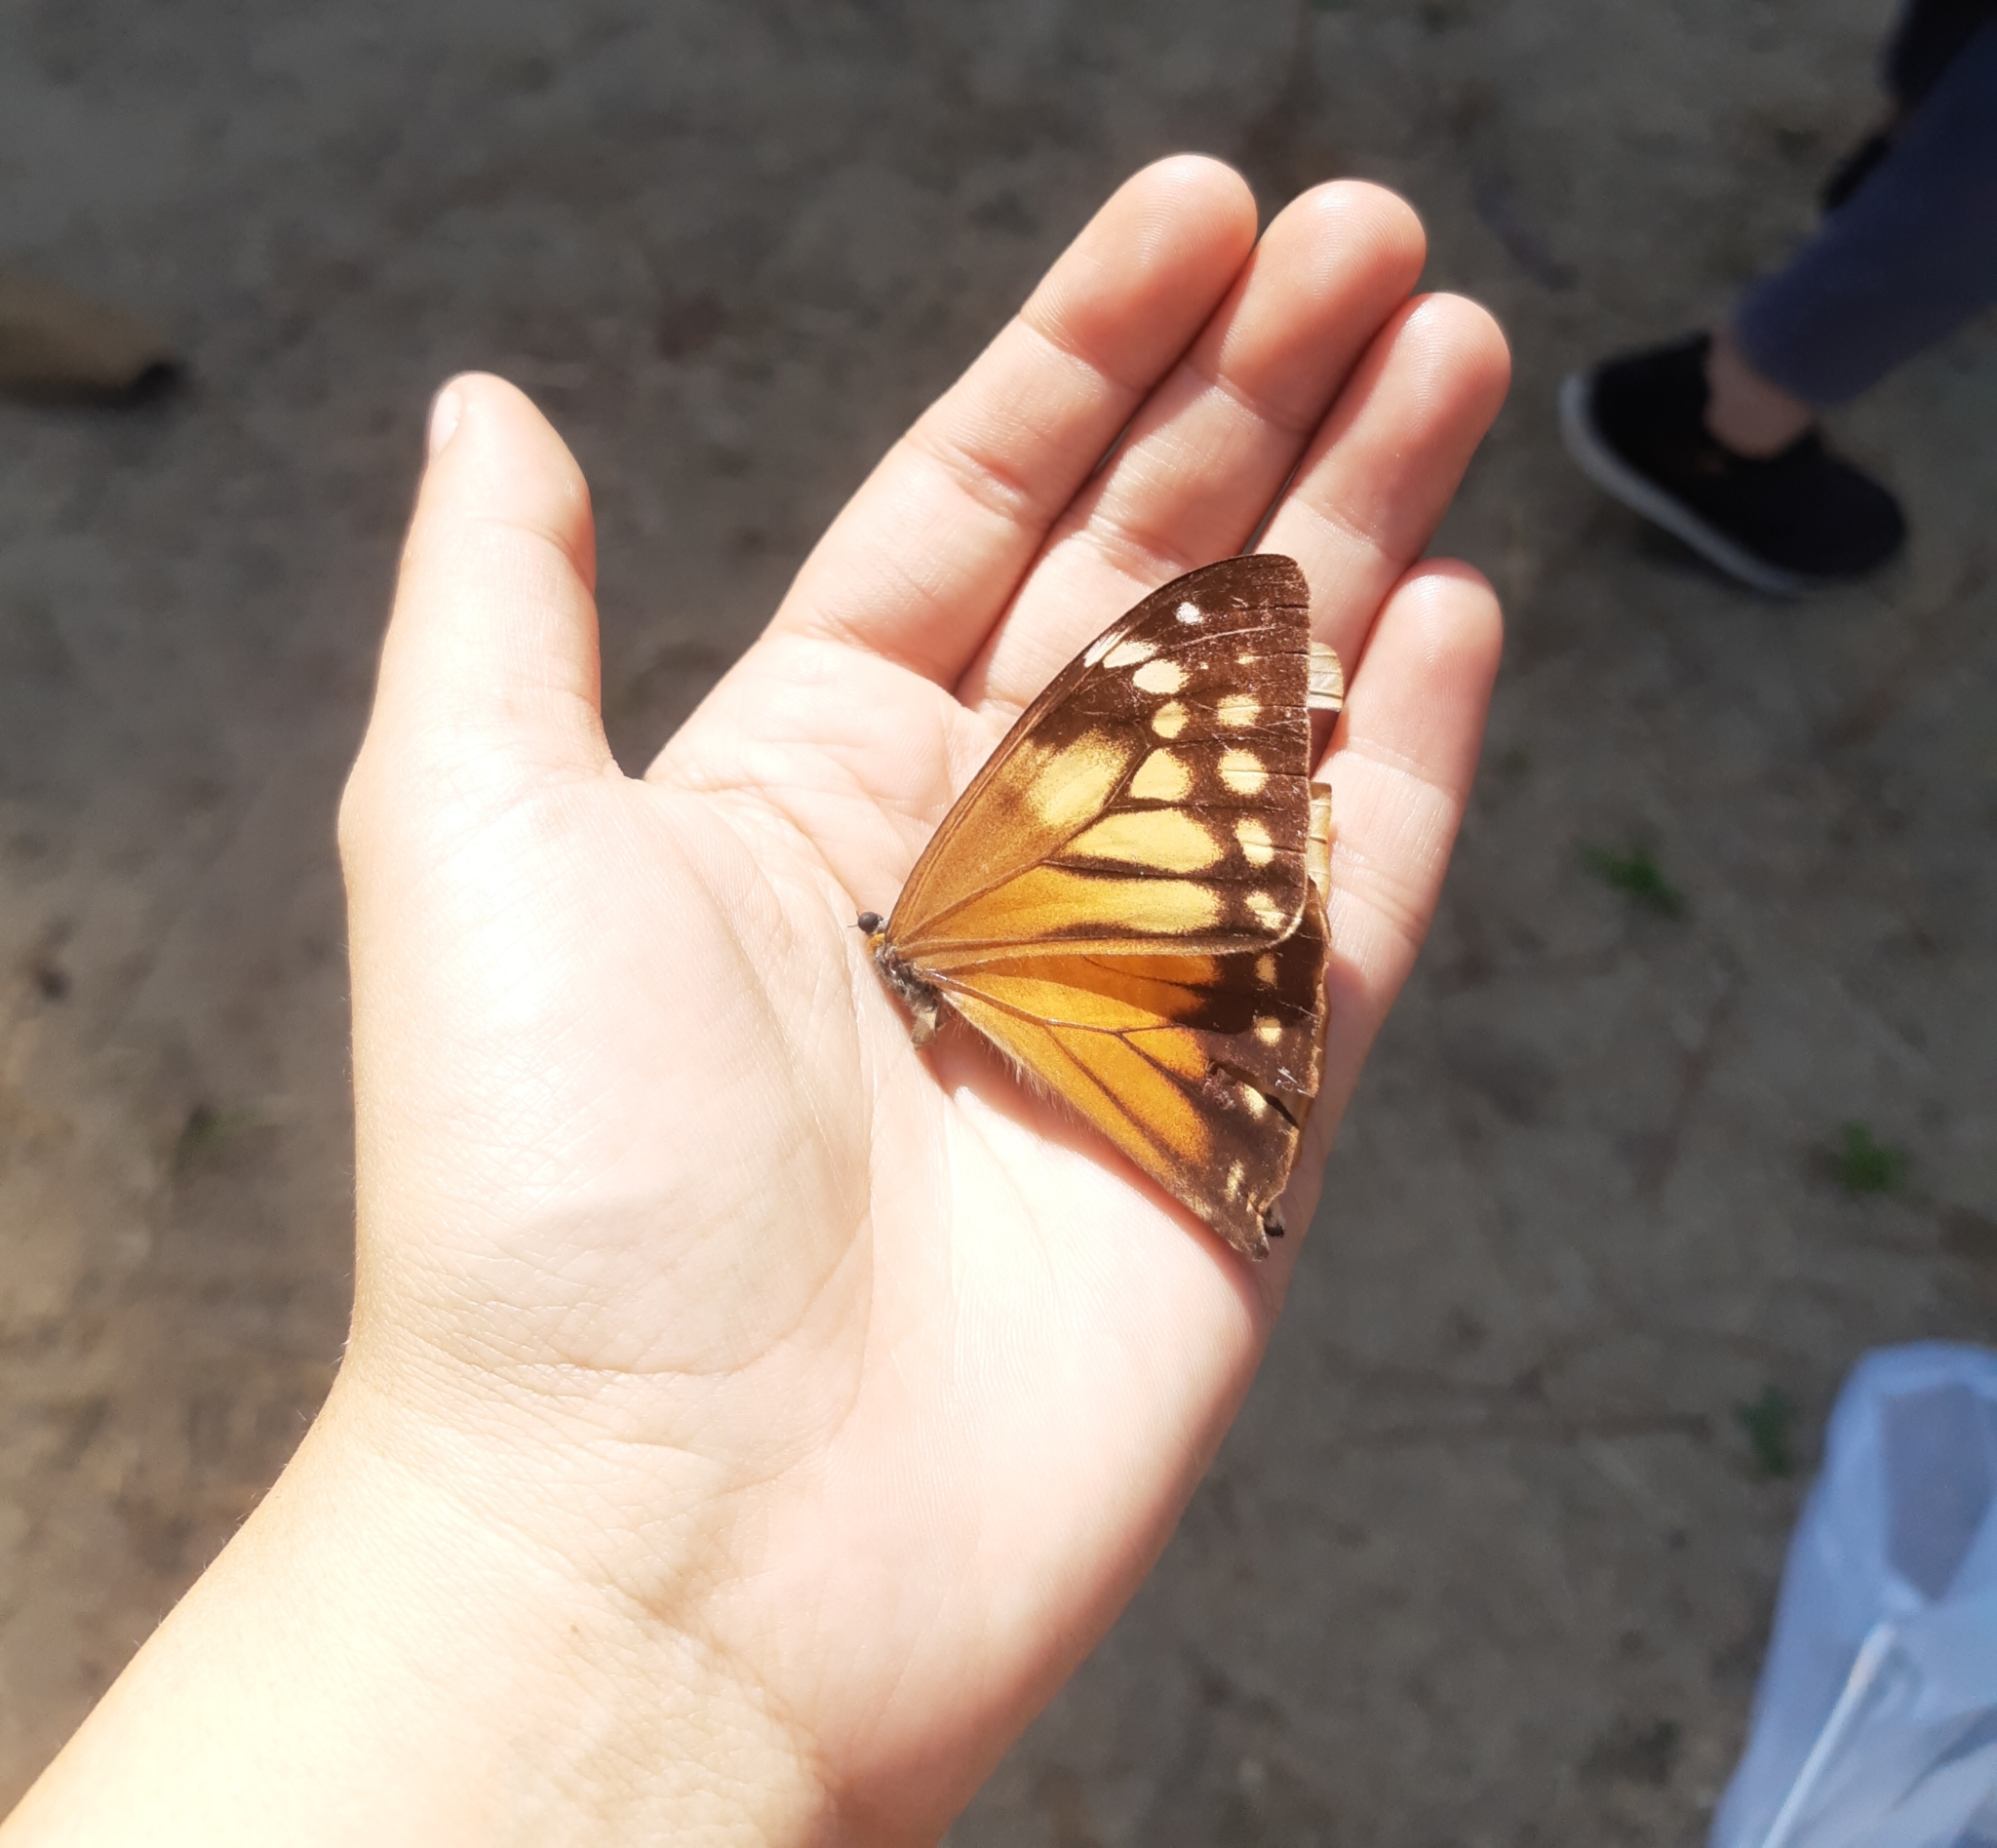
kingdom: Animalia
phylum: Arthropoda
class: Insecta
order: Lepidoptera
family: Nymphalidae
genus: Morpho
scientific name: Morpho aega
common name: Aega morpho
